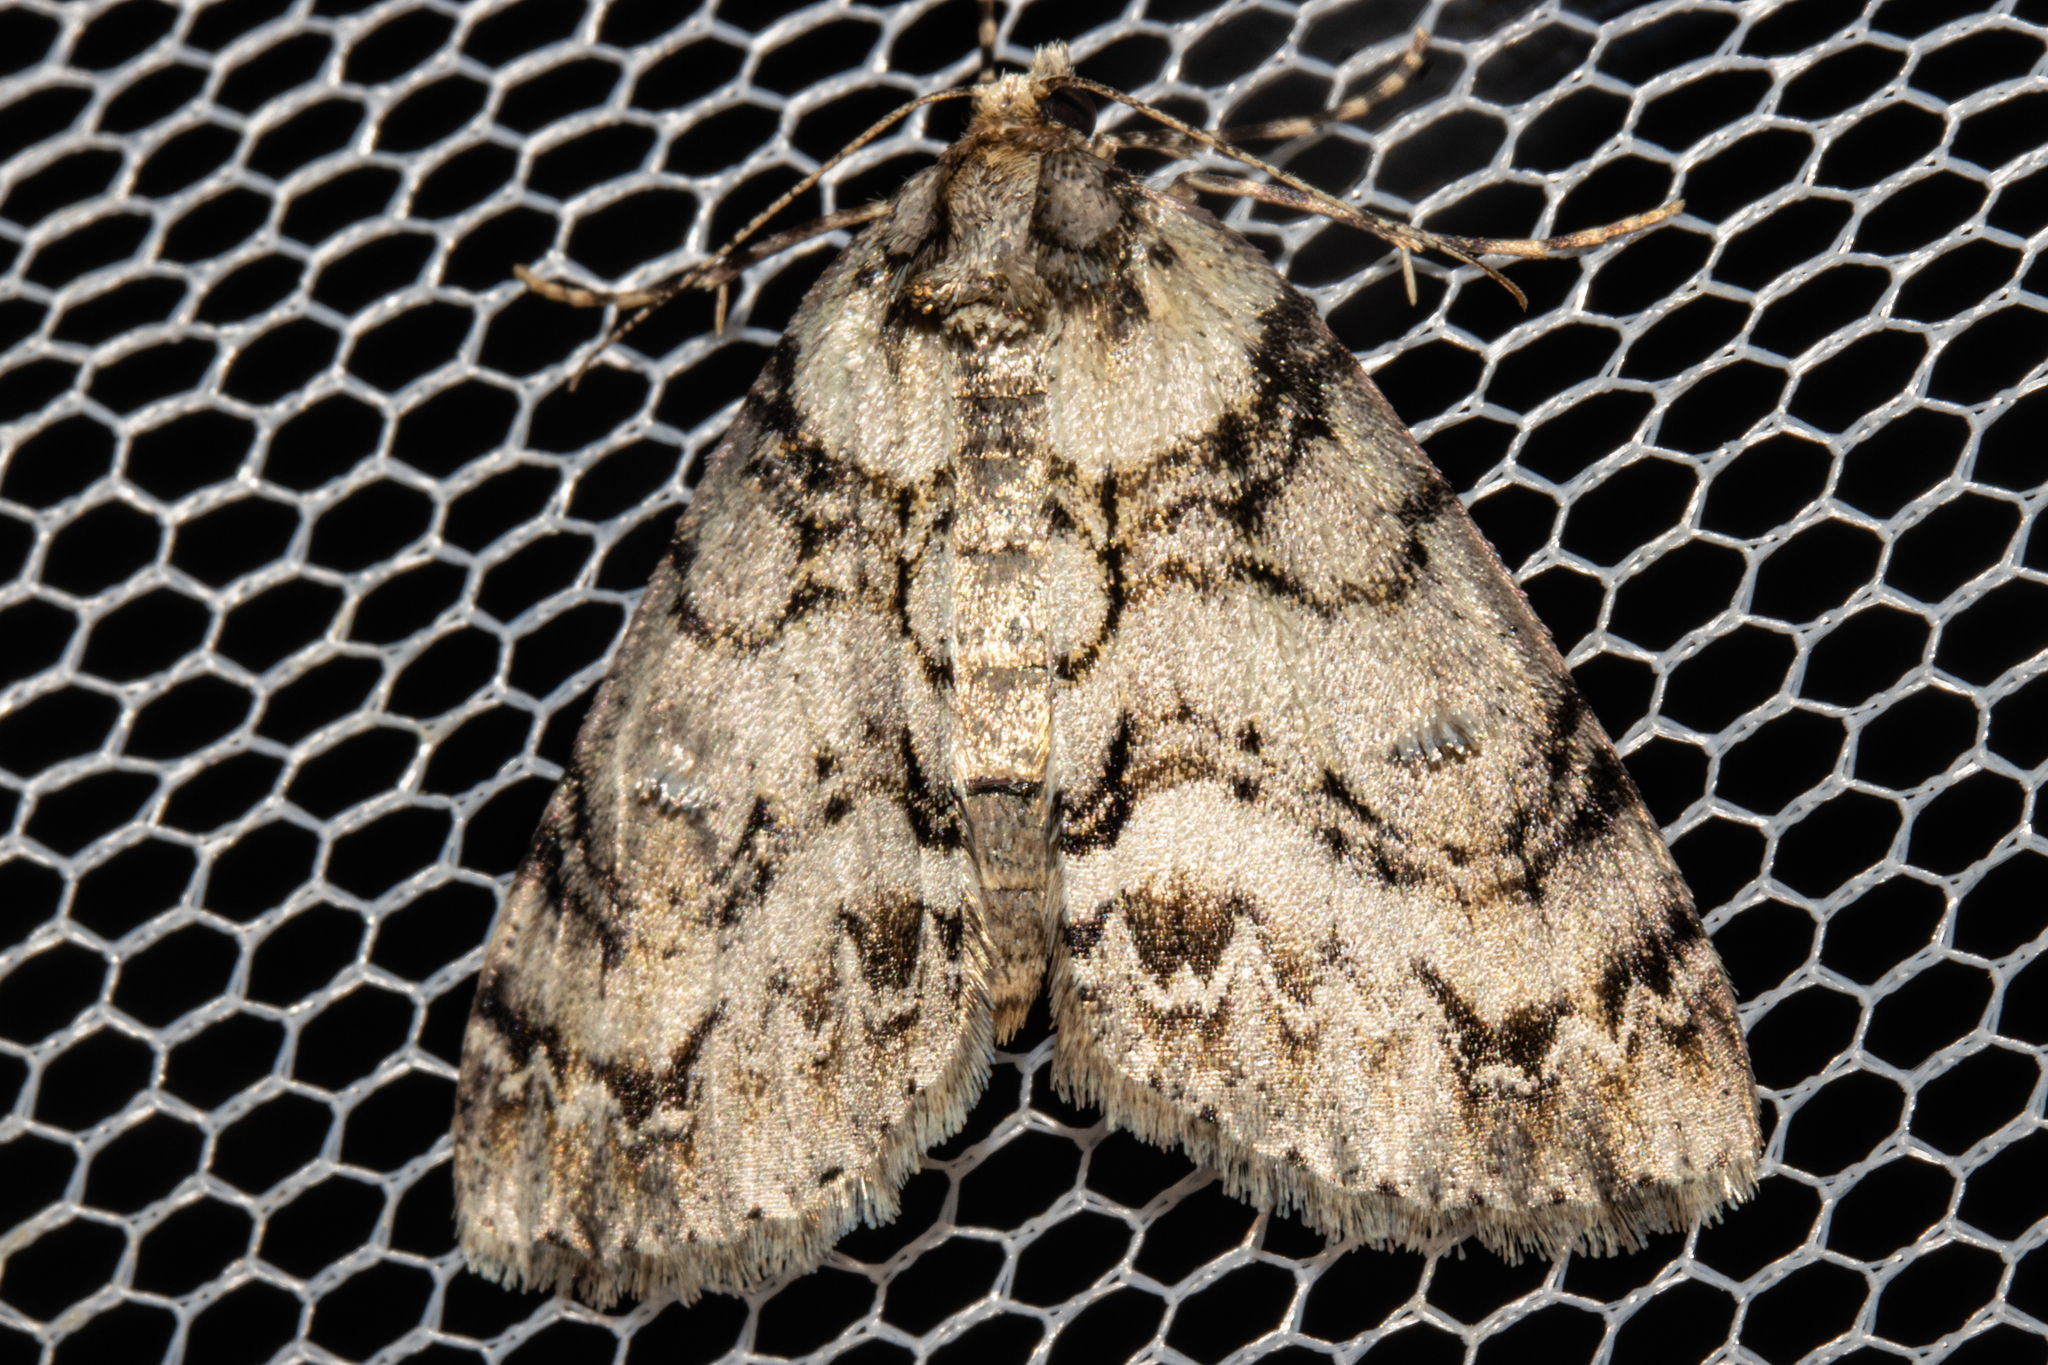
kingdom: Animalia
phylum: Arthropoda
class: Insecta
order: Lepidoptera
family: Geometridae
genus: Pseudocoremia
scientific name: Pseudocoremia suavis
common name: Common forest looper
